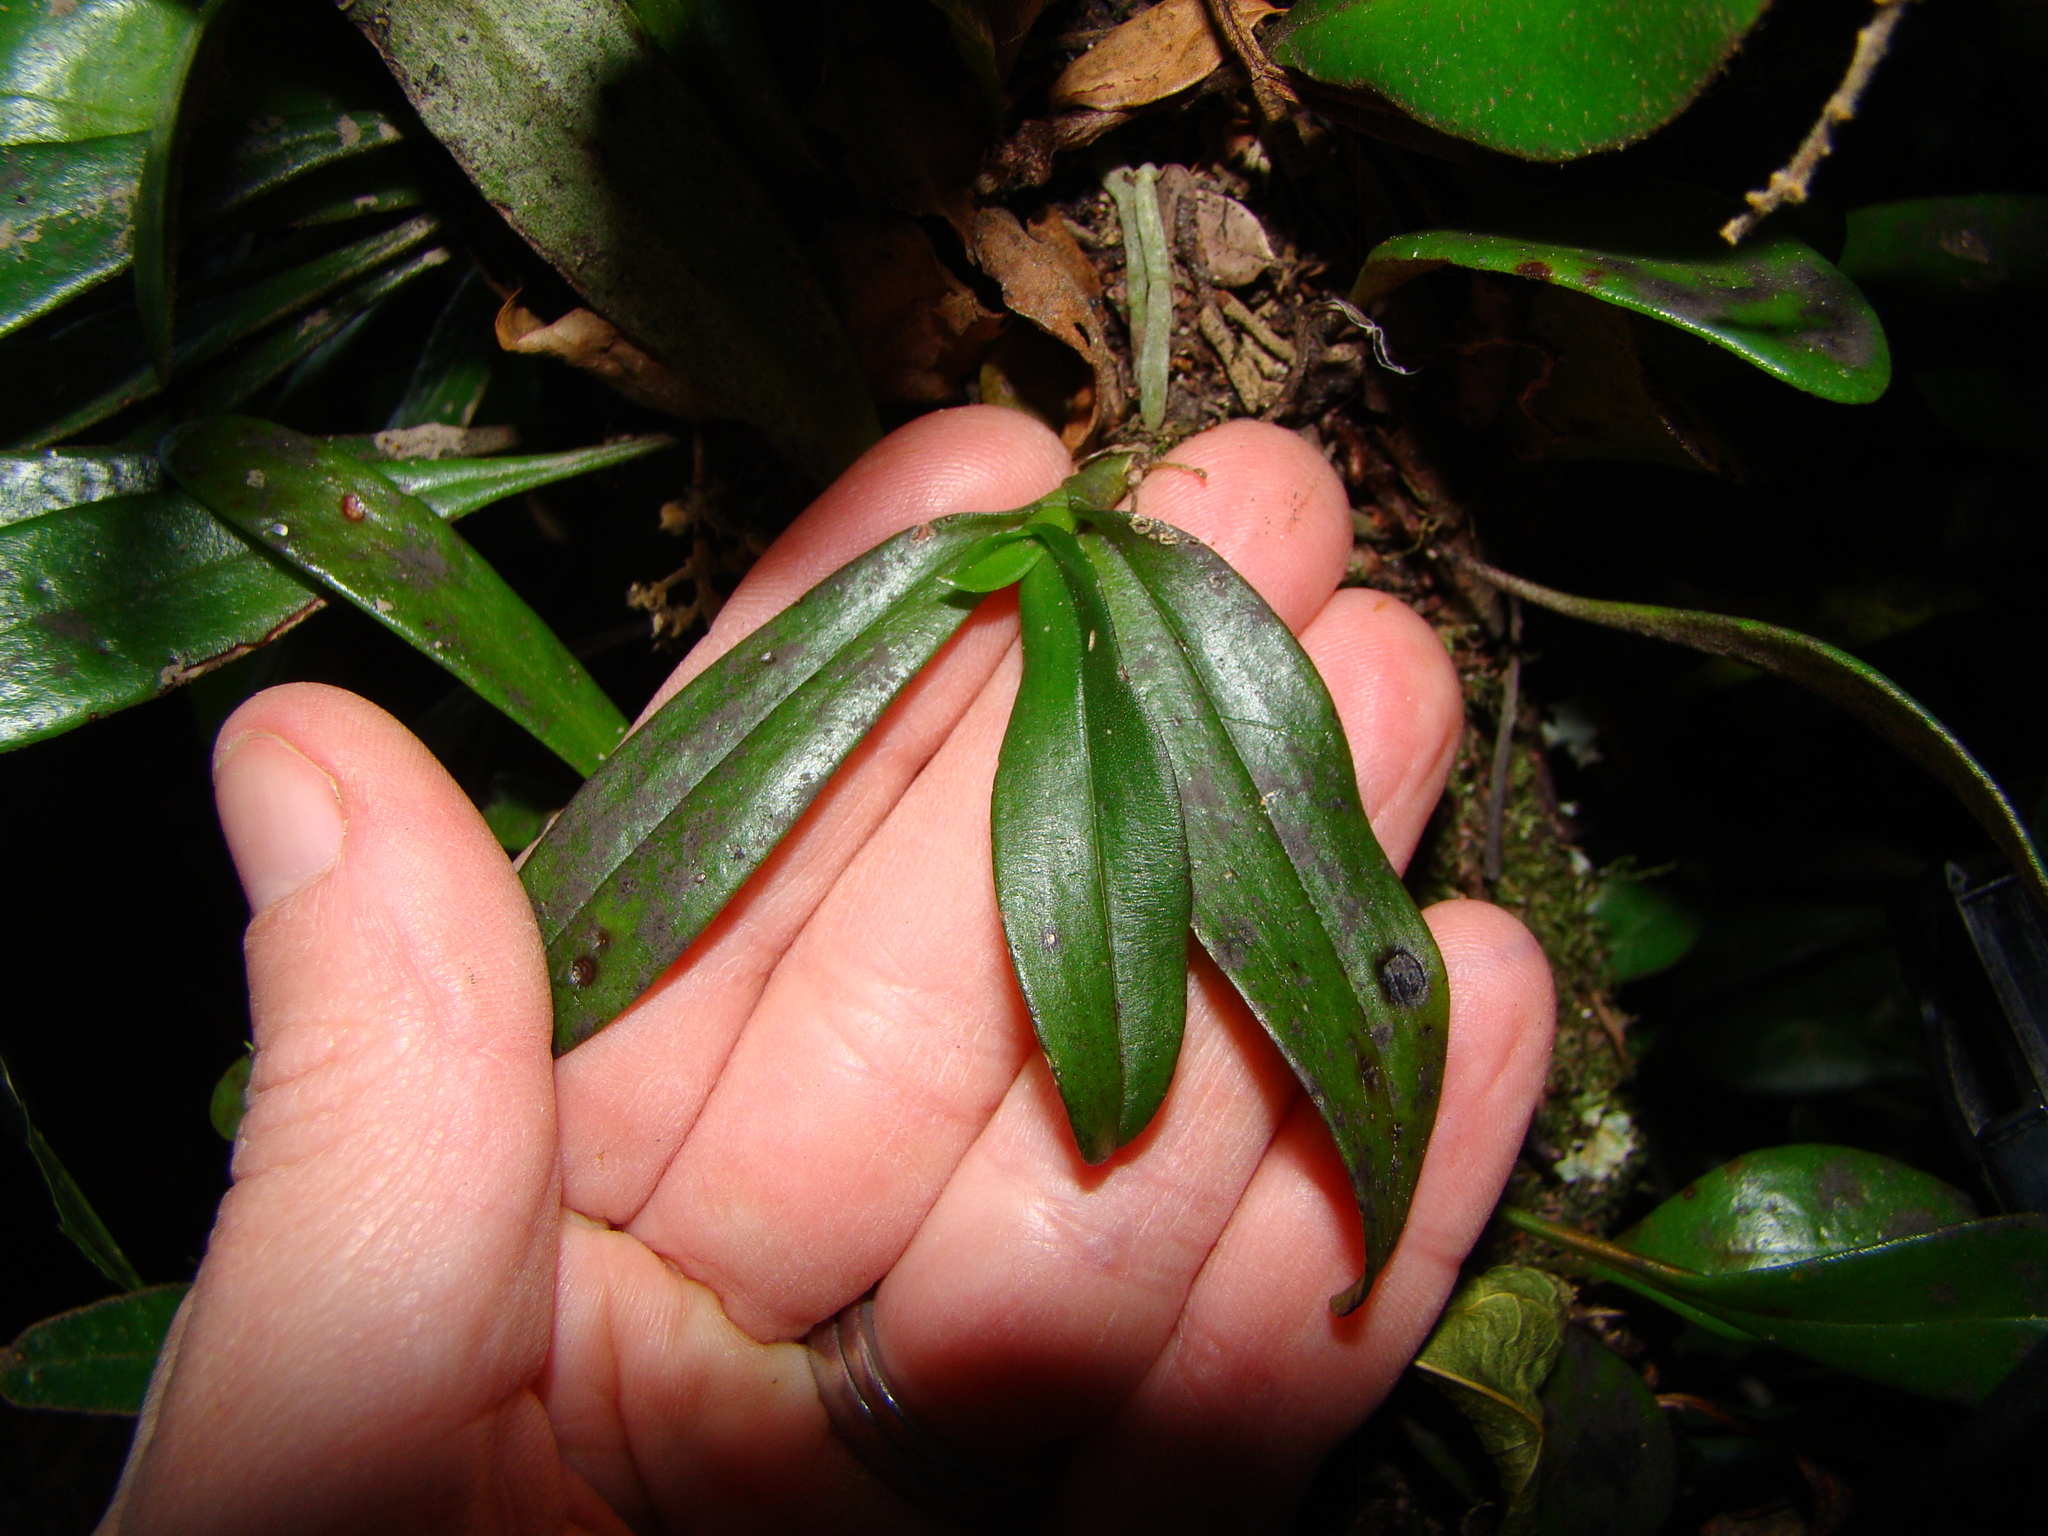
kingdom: Plantae
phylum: Tracheophyta
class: Liliopsida
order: Asparagales
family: Orchidaceae
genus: Drymoanthus
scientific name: Drymoanthus adversus
